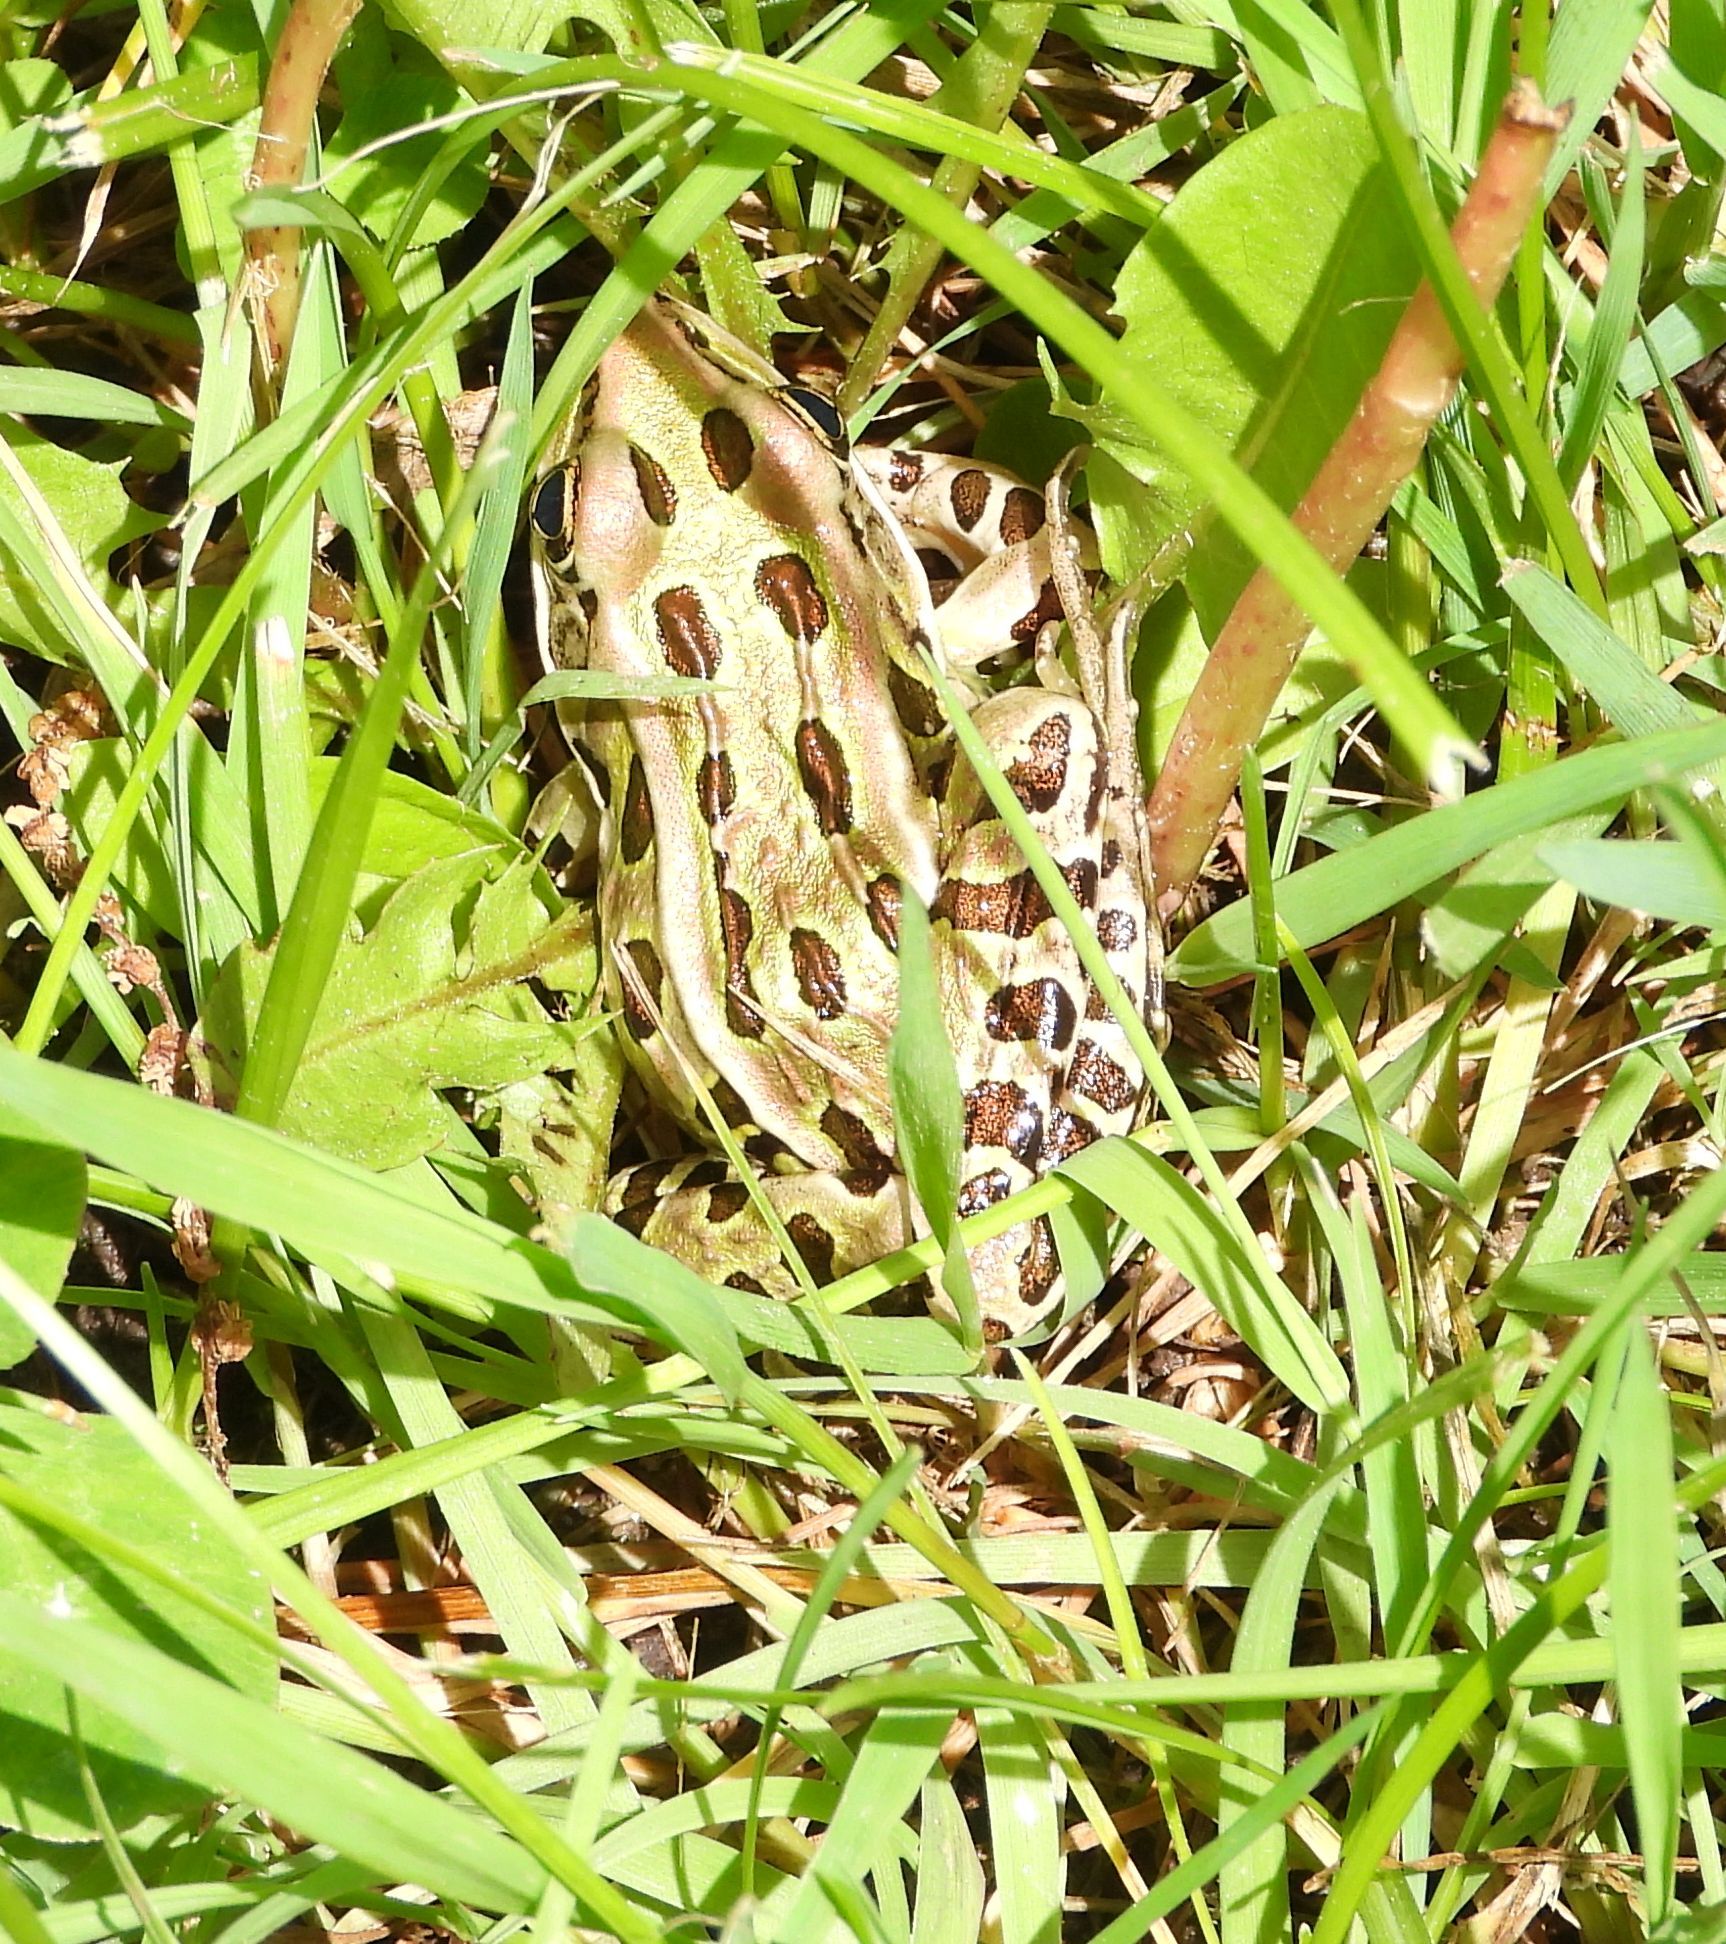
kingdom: Animalia
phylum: Chordata
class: Amphibia
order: Anura
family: Ranidae
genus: Lithobates
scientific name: Lithobates pipiens
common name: Northern leopard frog
